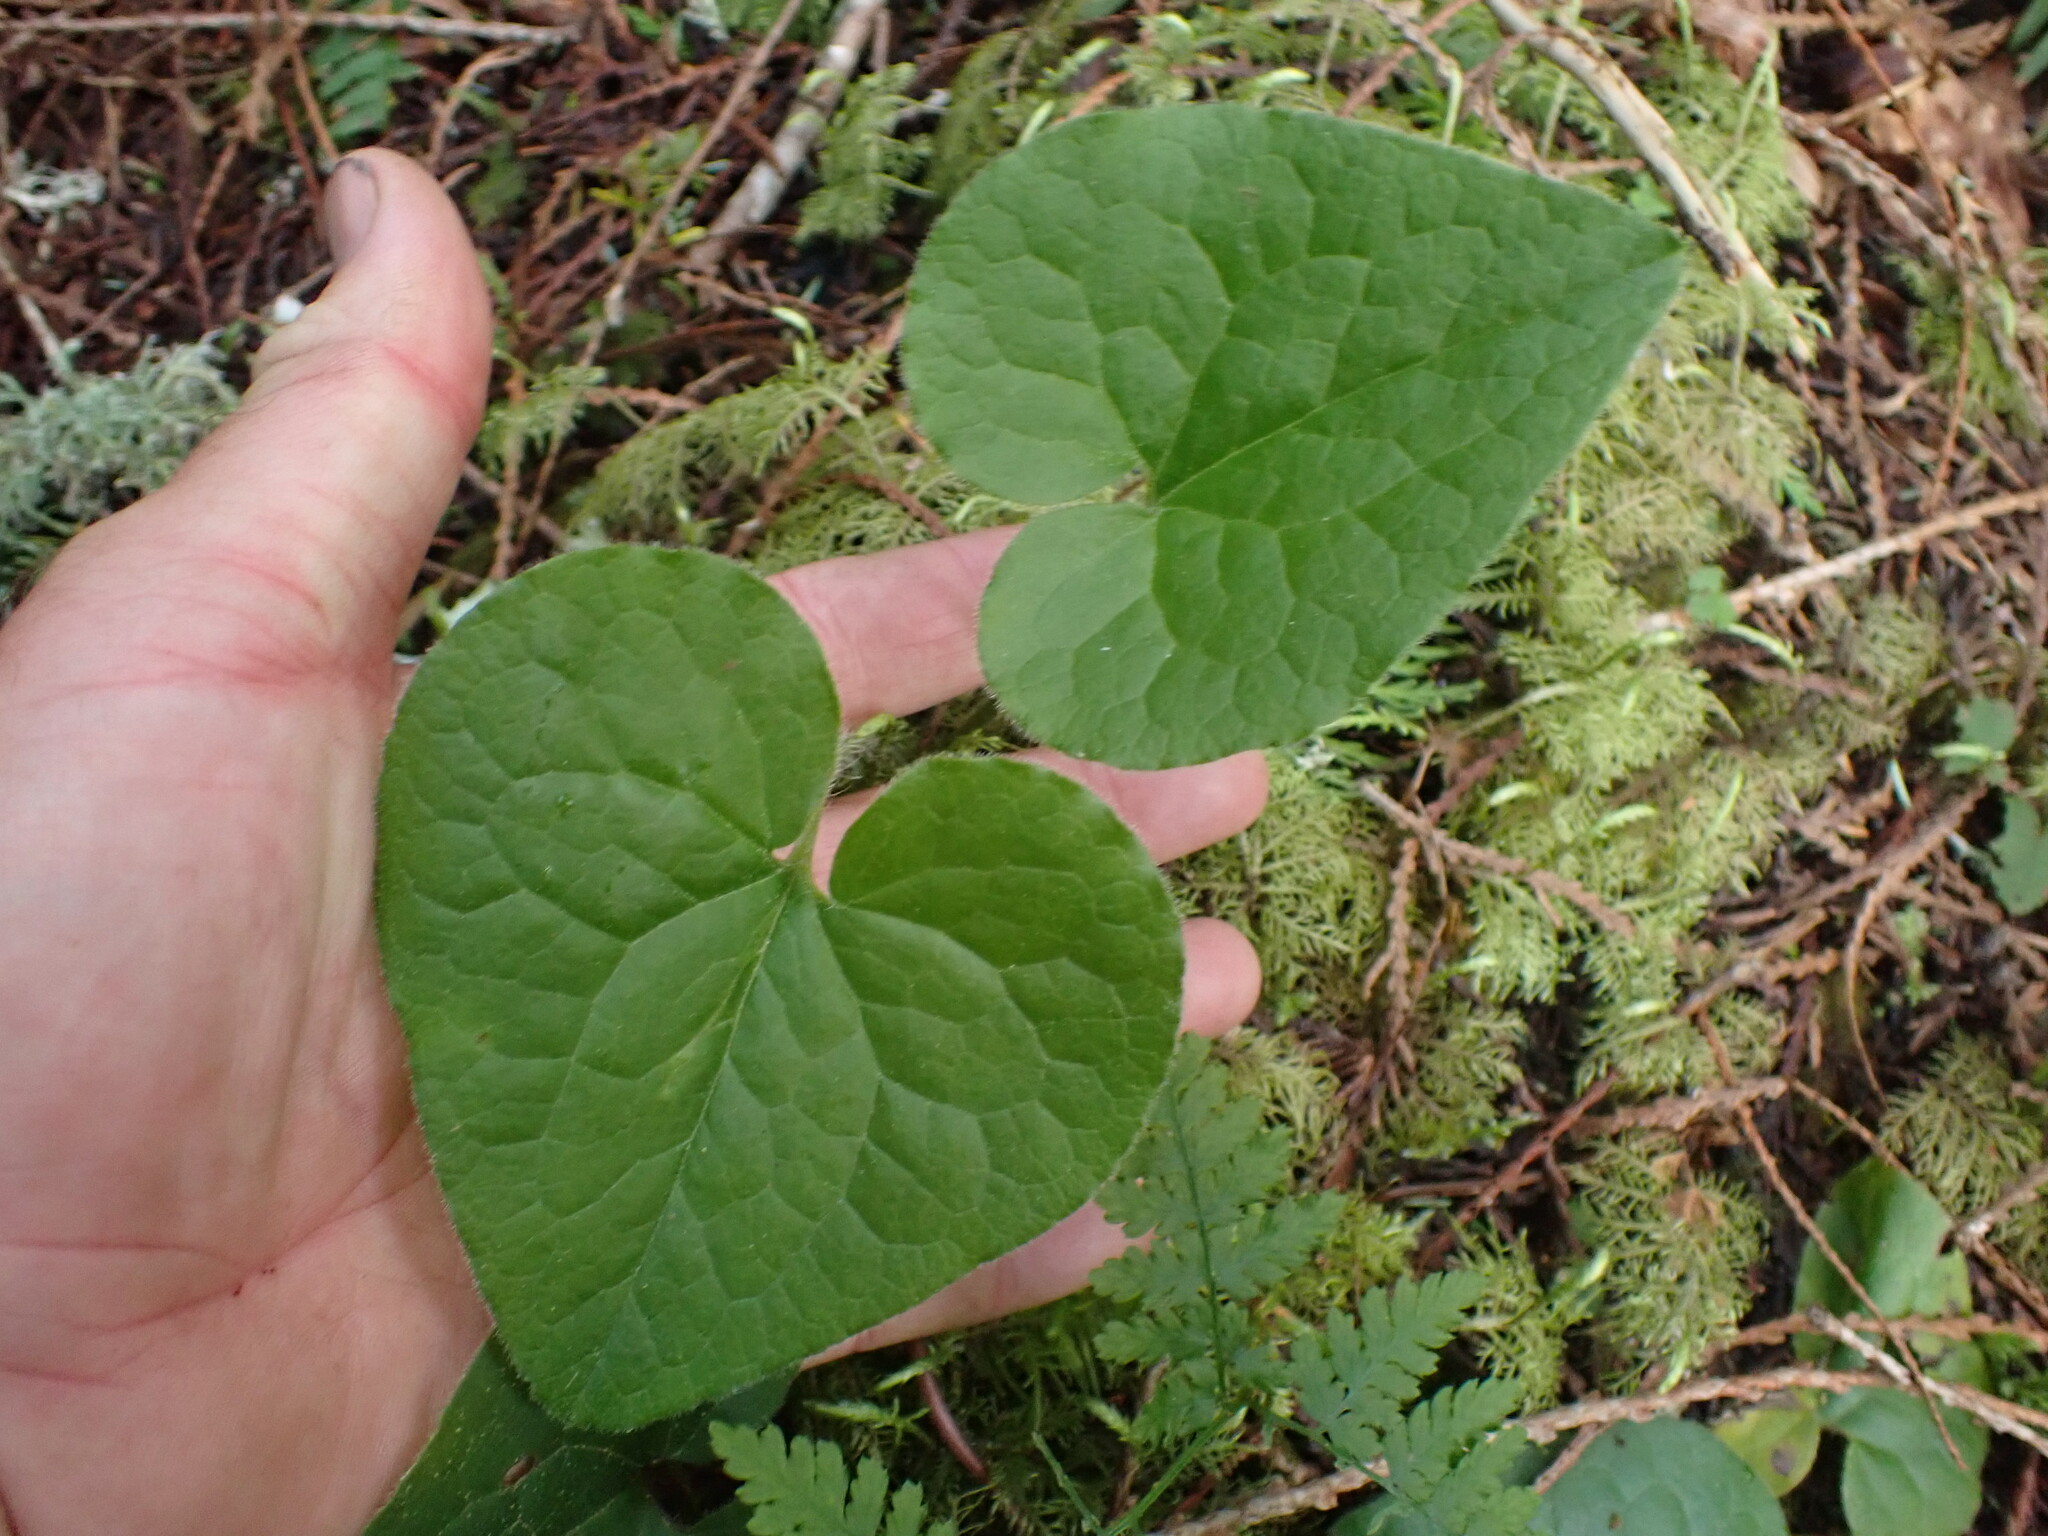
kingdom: Plantae
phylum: Tracheophyta
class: Magnoliopsida
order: Piperales
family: Aristolochiaceae
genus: Asarum
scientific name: Asarum caudatum
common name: Wild ginger
